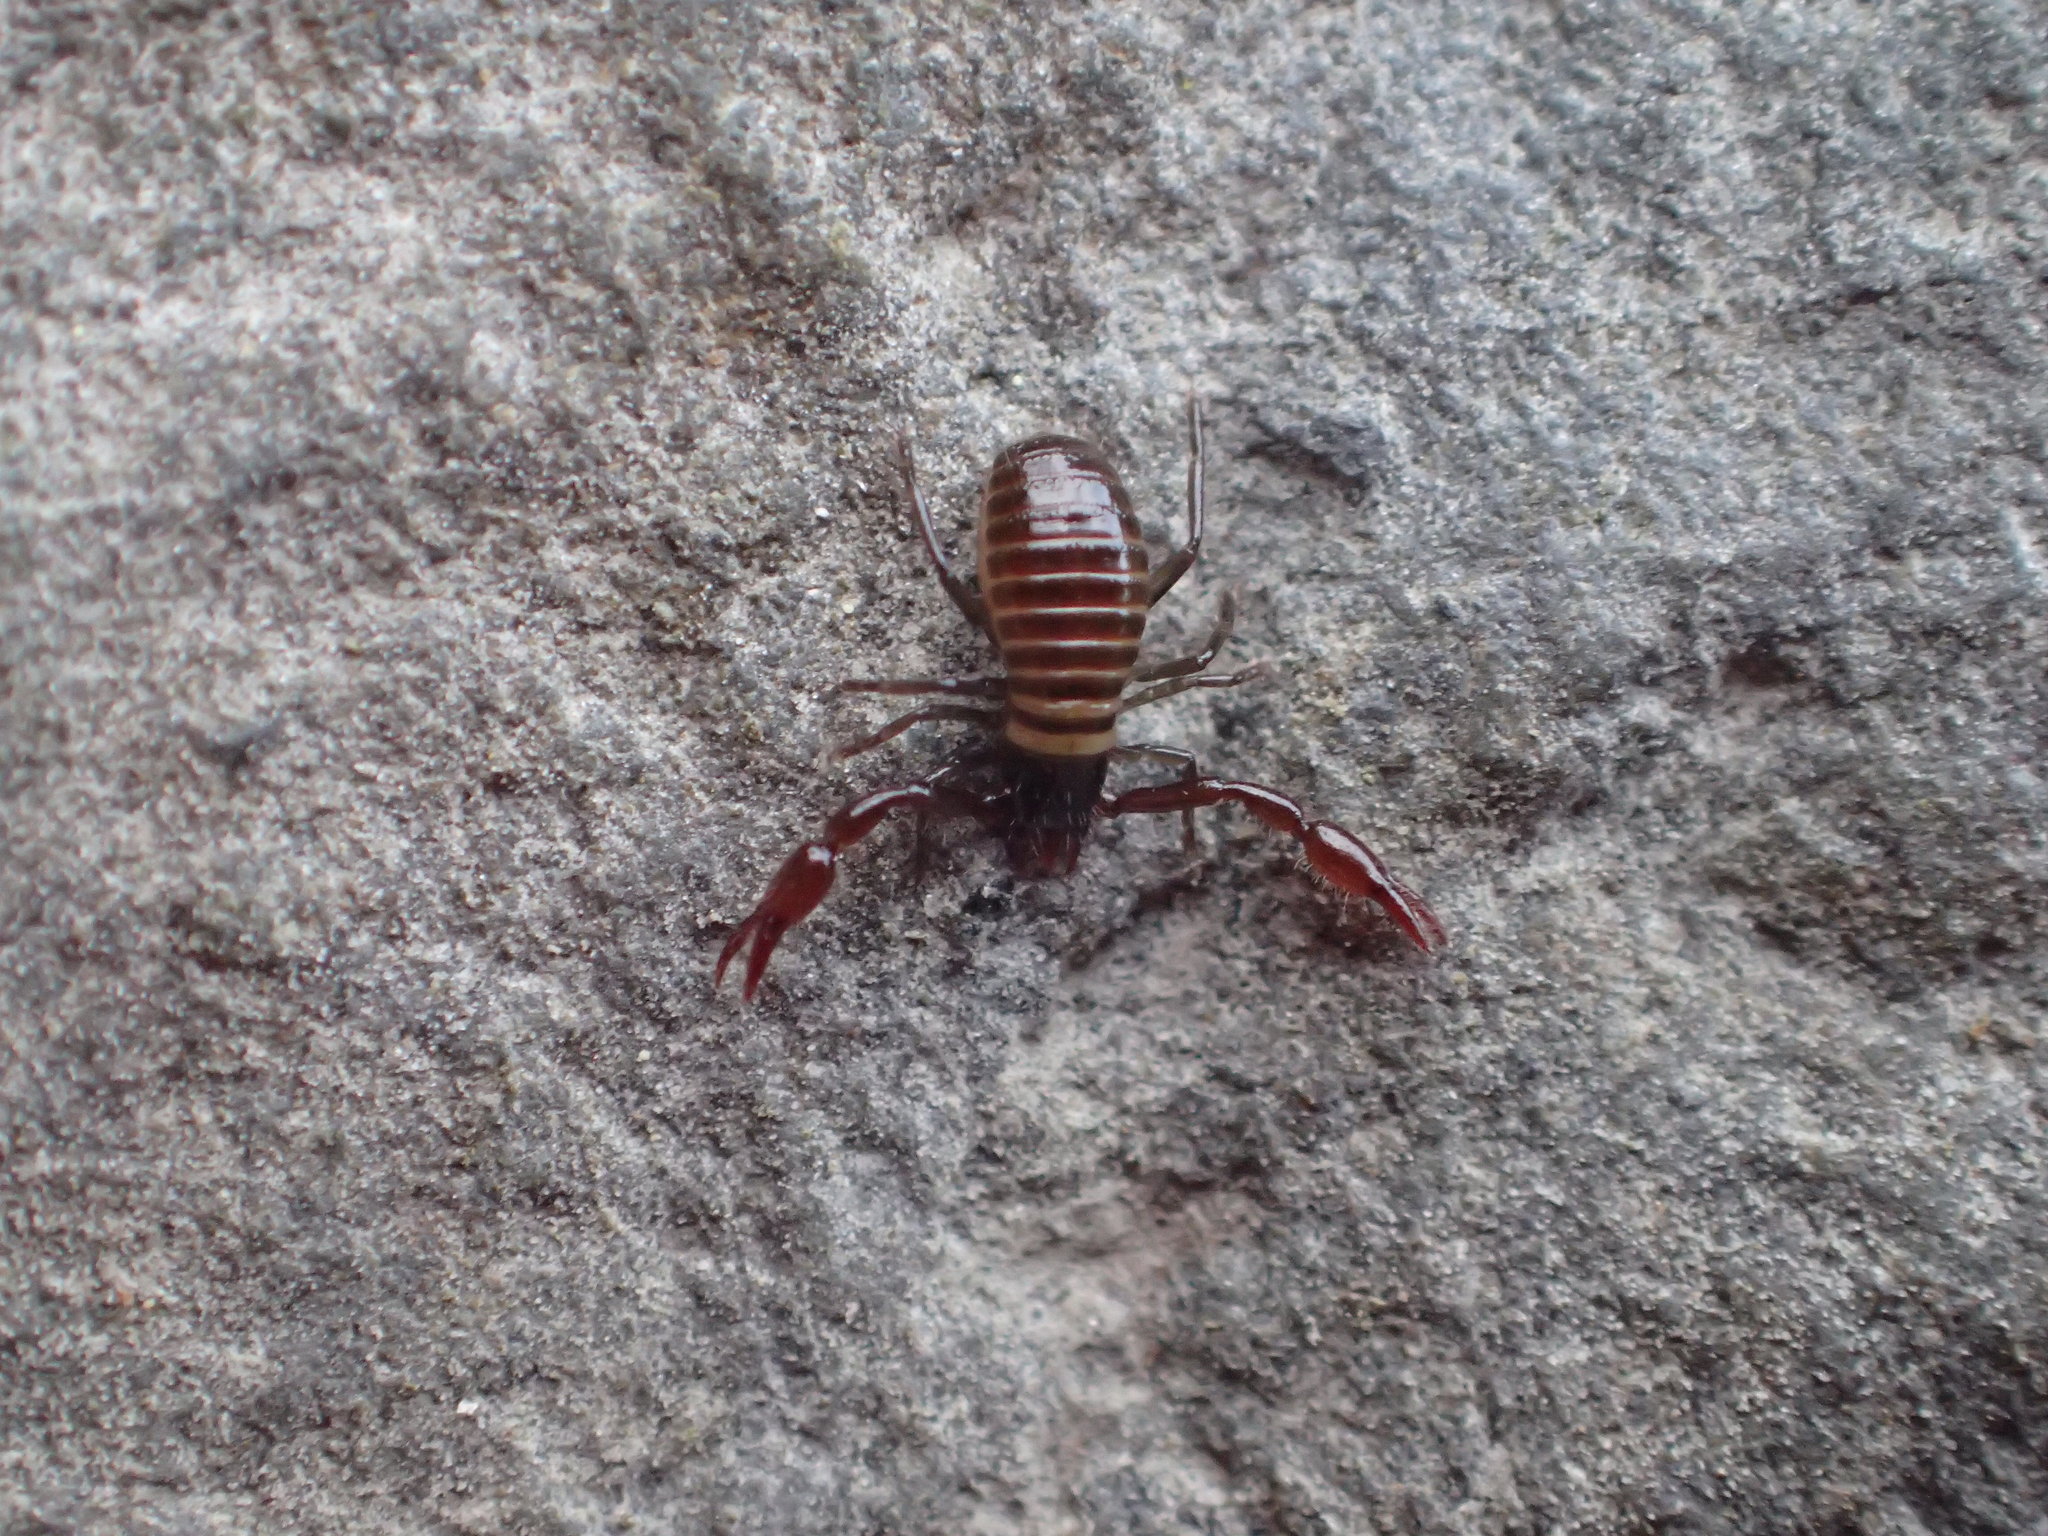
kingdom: Animalia
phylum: Arthropoda
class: Arachnida
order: Pseudoscorpiones
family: Neobisiidae
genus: Halobisium
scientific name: Halobisium occidentale
